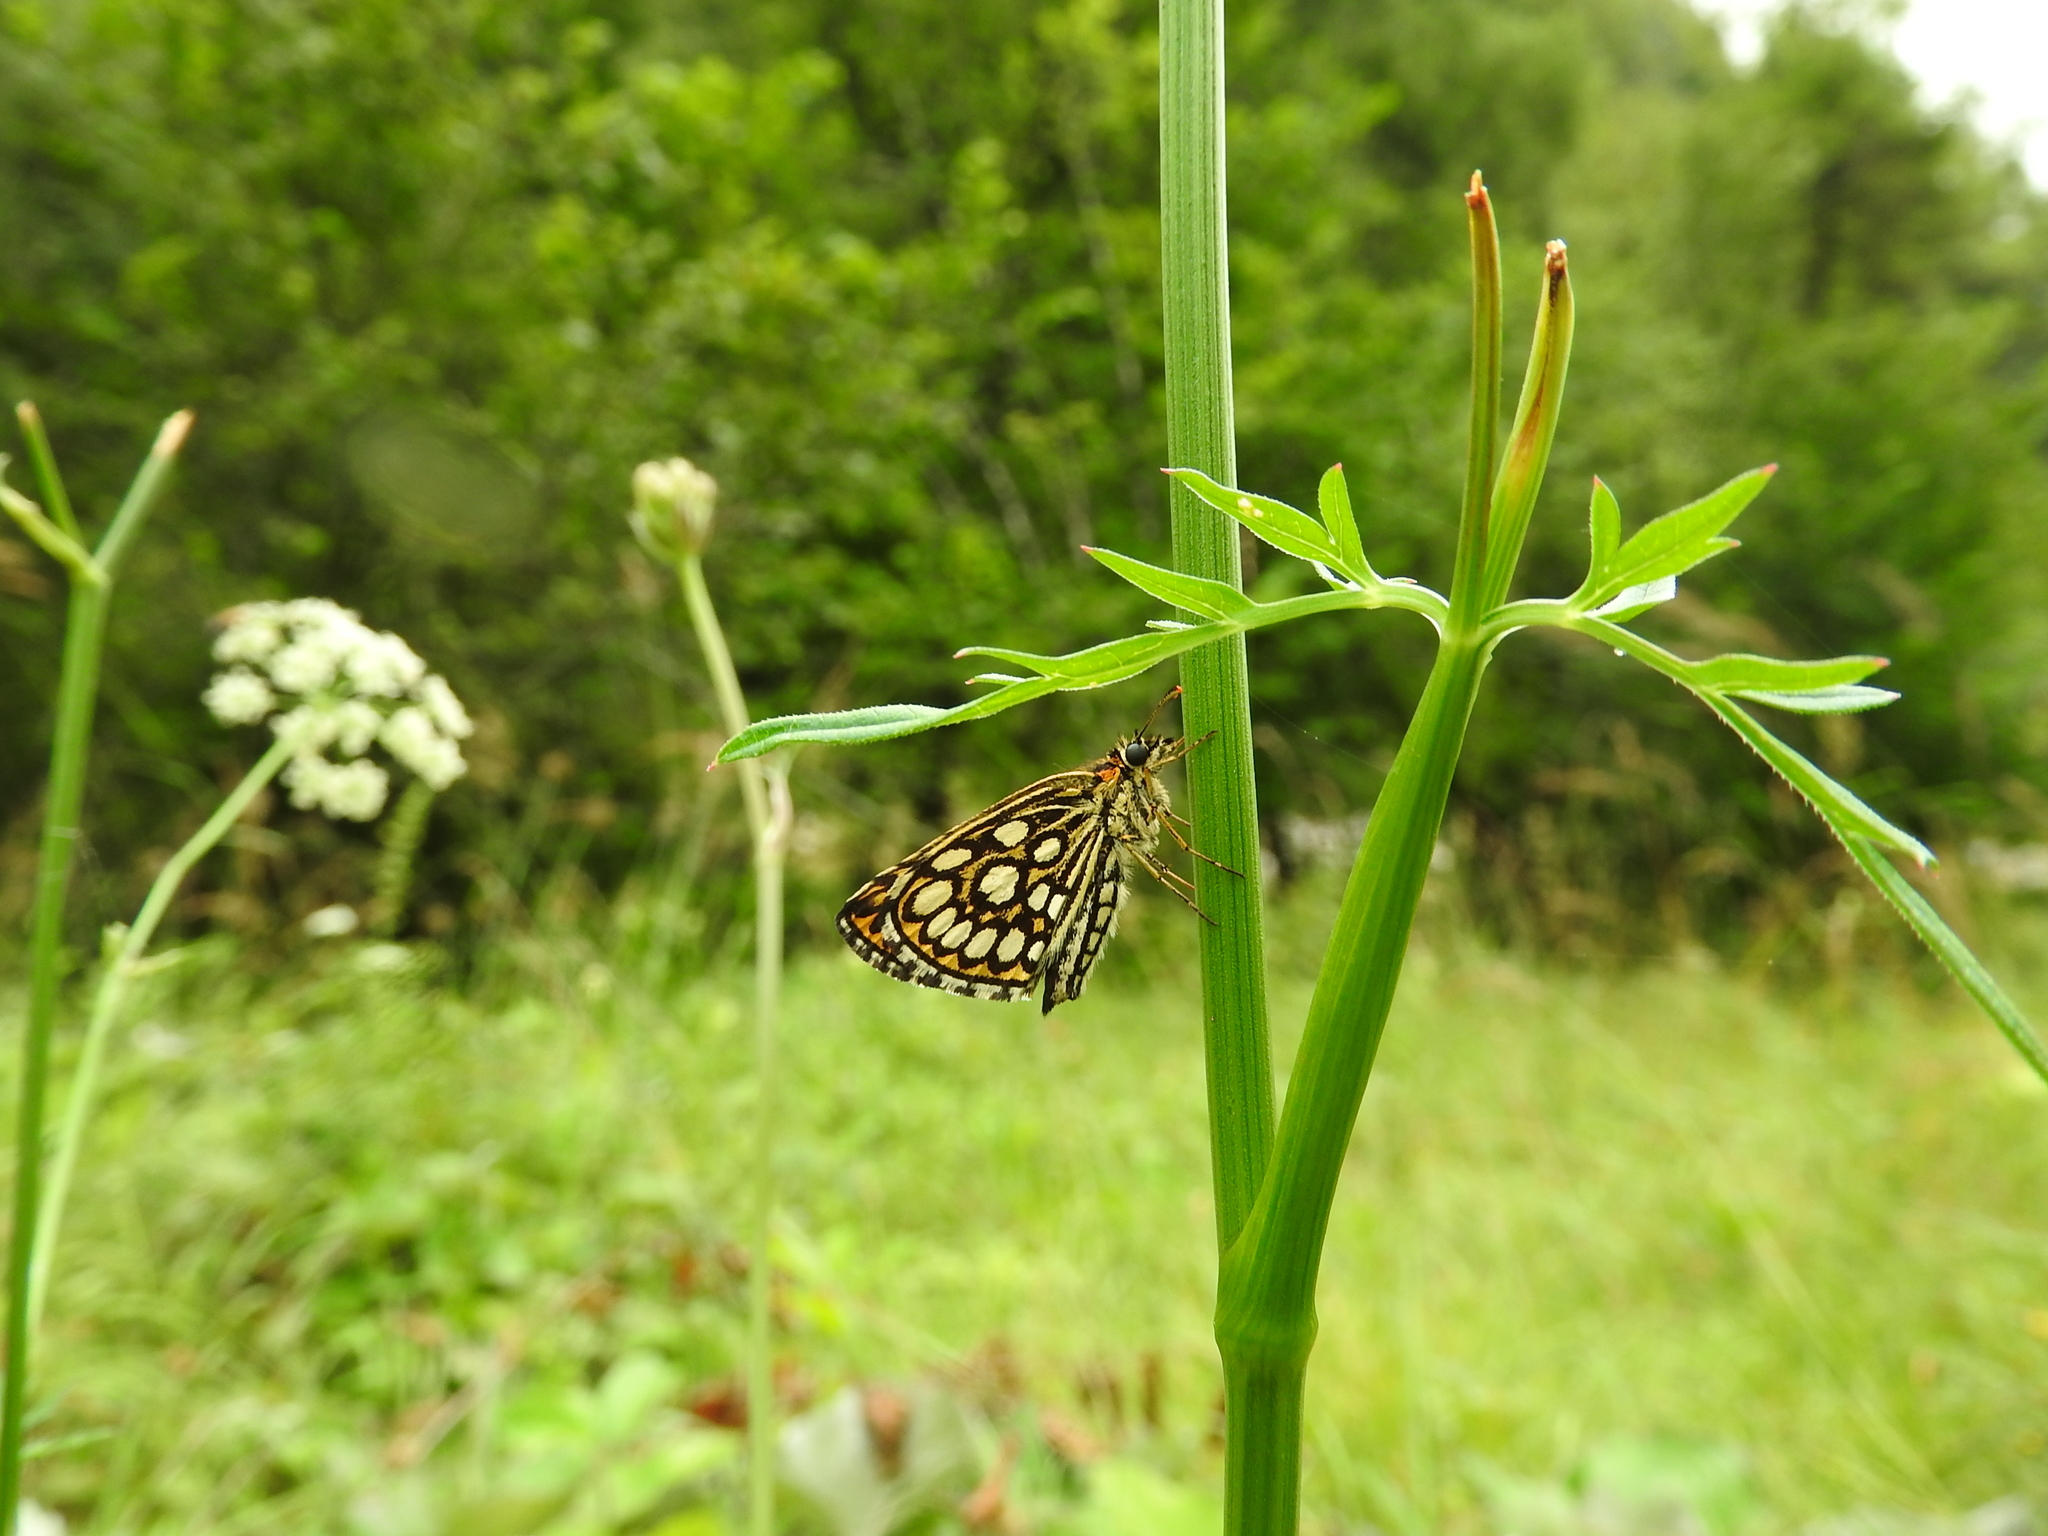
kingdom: Animalia
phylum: Arthropoda
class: Insecta
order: Lepidoptera
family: Hesperiidae
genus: Heteropterus
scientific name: Heteropterus morpheus
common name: Large chequered skipper
